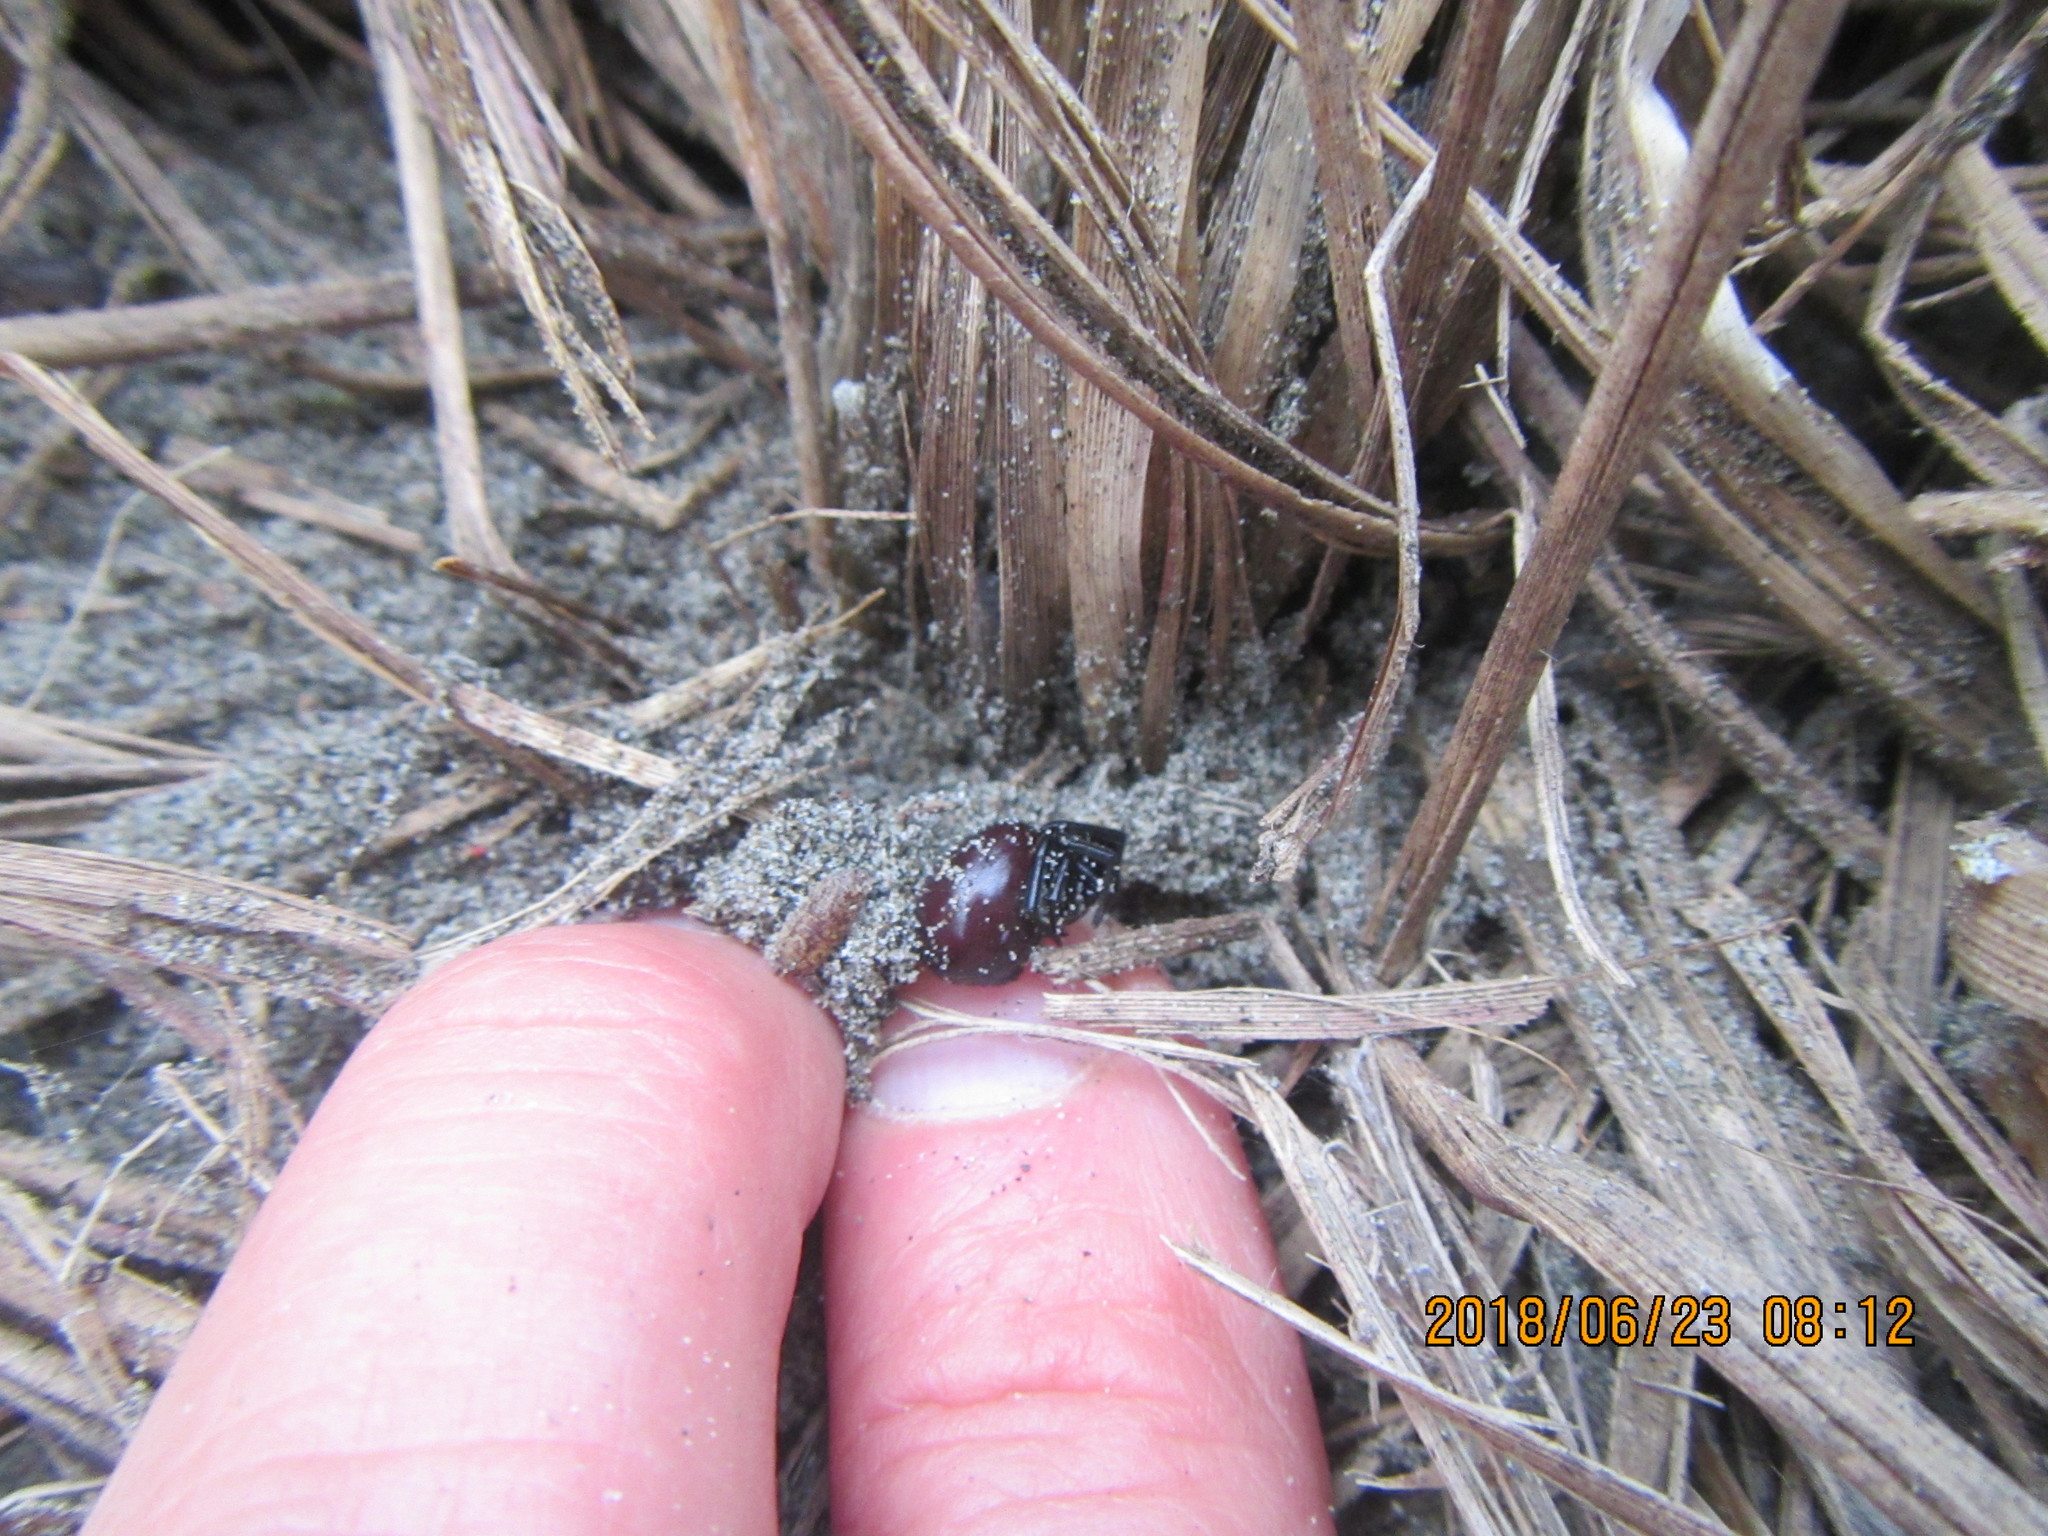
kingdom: Animalia
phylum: Arthropoda
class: Arachnida
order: Araneae
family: Theridiidae
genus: Steatoda
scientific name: Steatoda capensis
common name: Cobweb weaver
